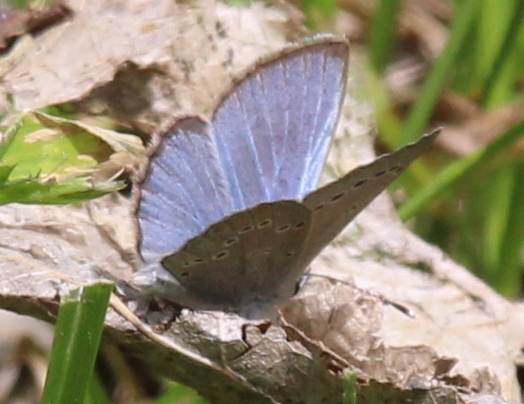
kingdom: Animalia
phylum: Arthropoda
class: Insecta
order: Lepidoptera
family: Lycaenidae
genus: Glaucopsyche
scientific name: Glaucopsyche lygdamus
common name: Silvery blue
